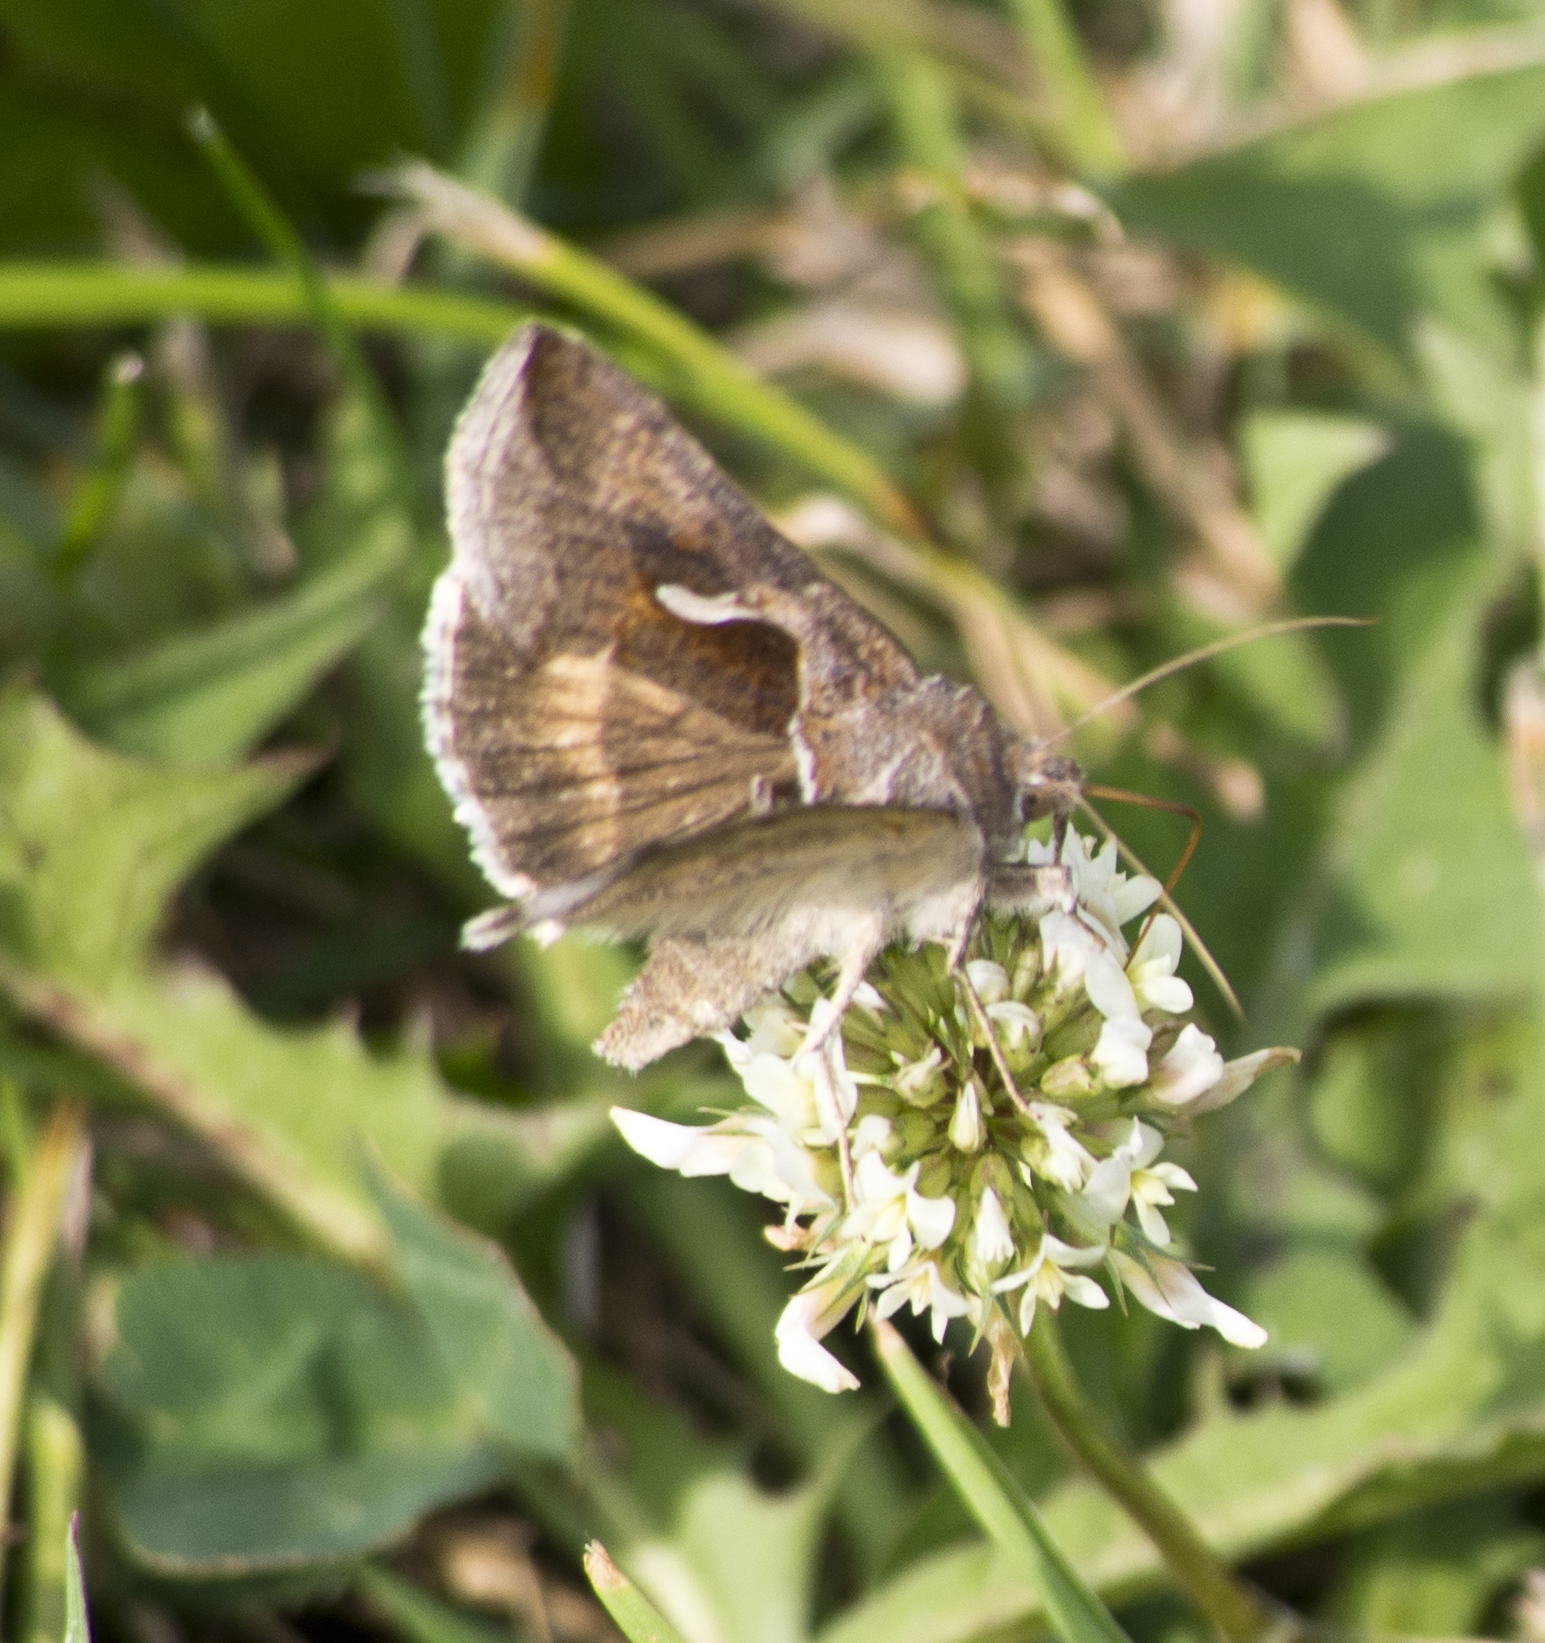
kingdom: Animalia
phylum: Arthropoda
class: Insecta
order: Lepidoptera
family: Noctuidae
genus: Anagrapha
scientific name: Anagrapha falcifera
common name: Celery looper
